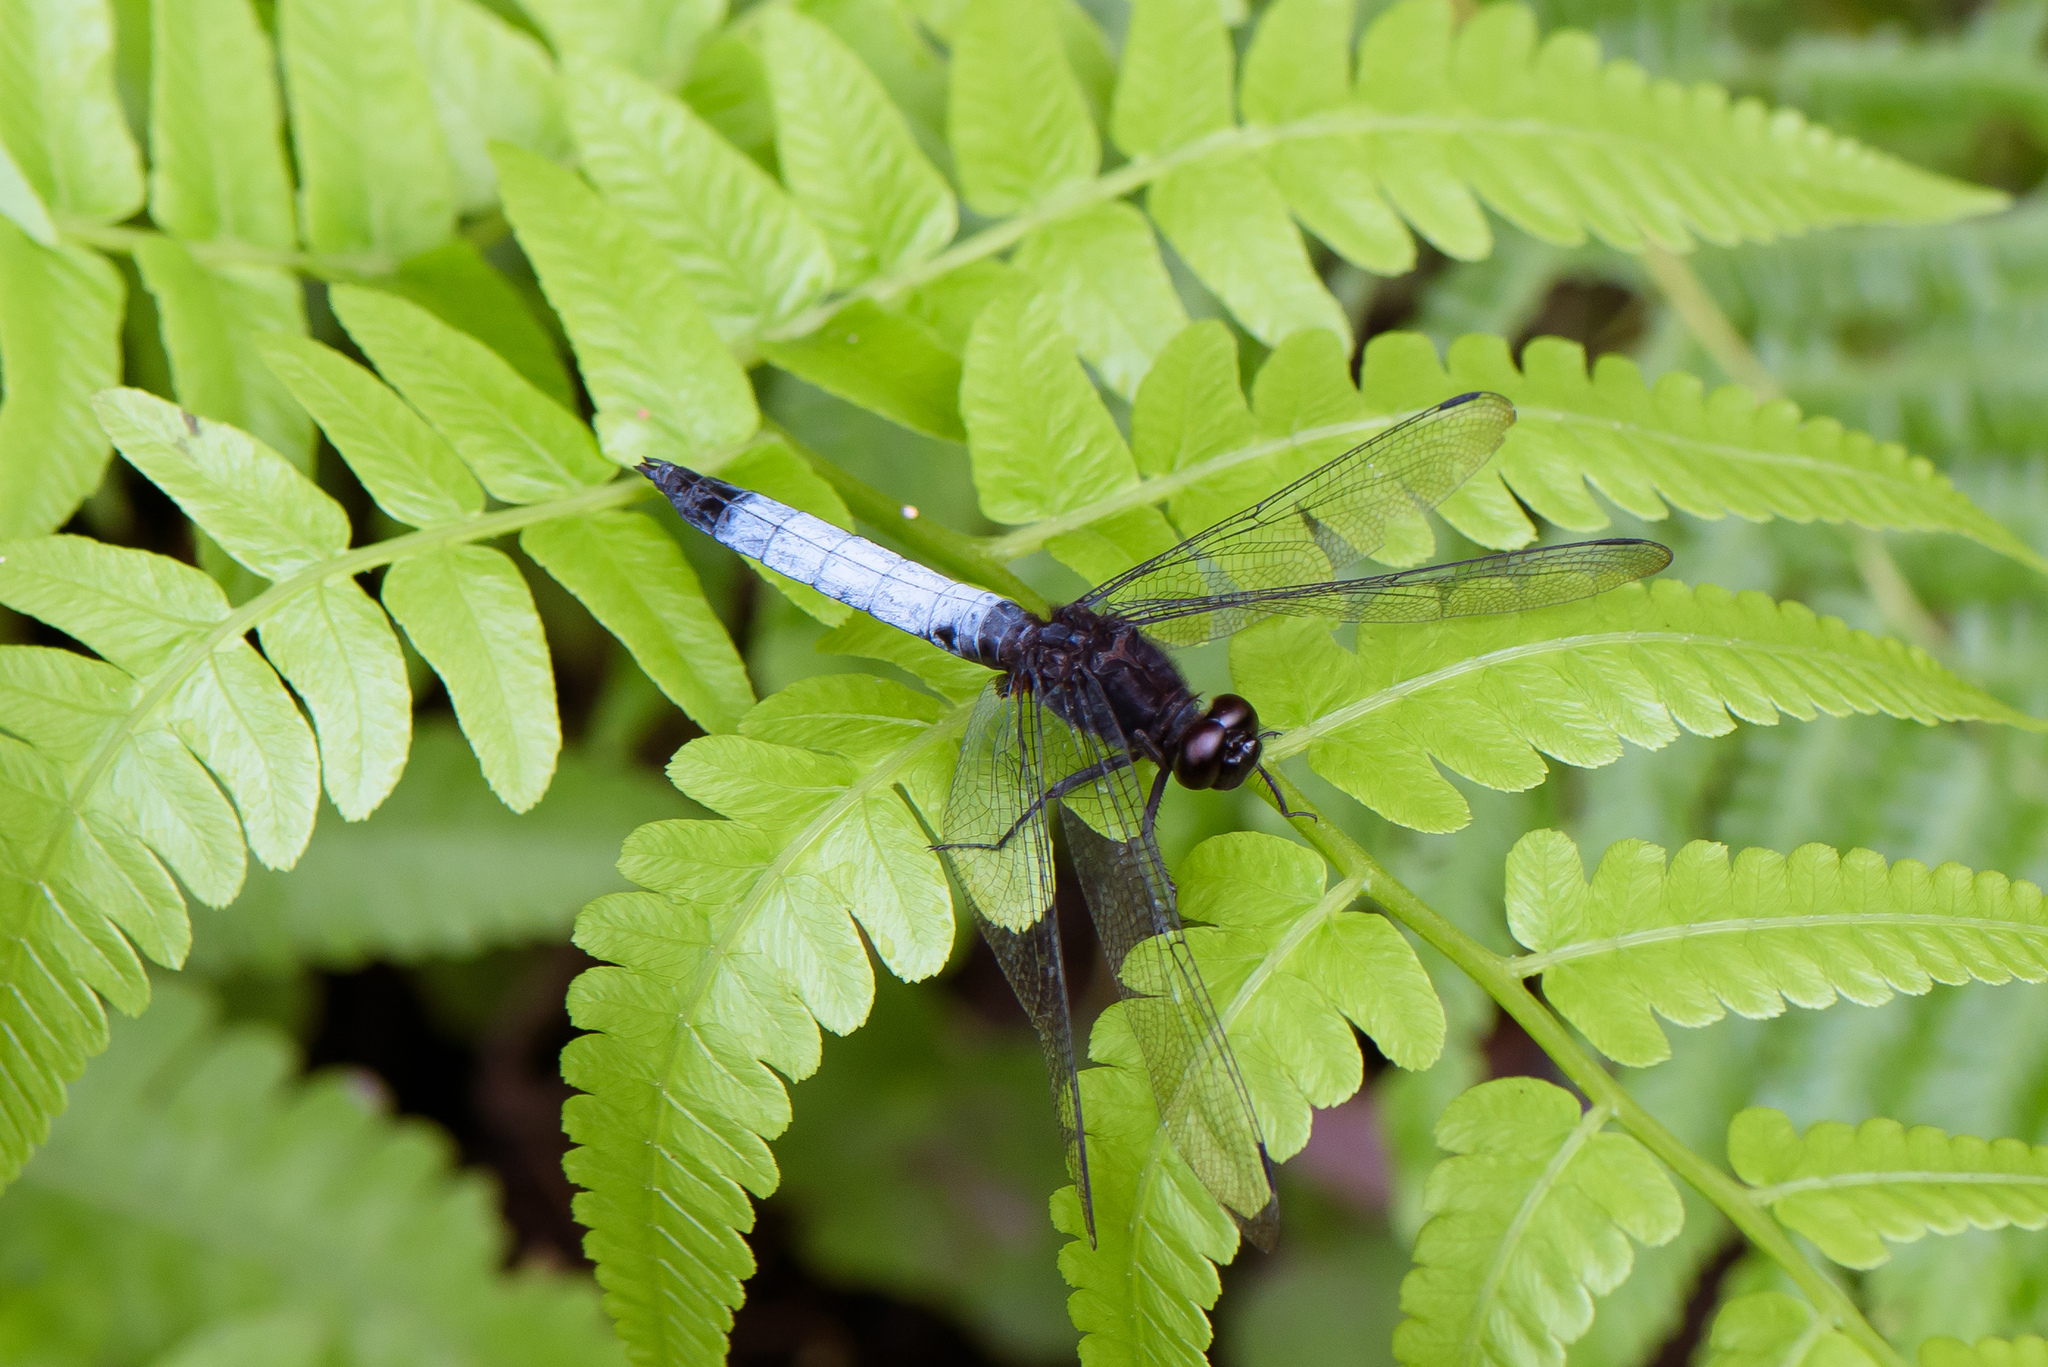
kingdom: Animalia
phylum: Arthropoda
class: Insecta
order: Odonata
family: Libellulidae
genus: Orthetrum
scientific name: Orthetrum triangulare
